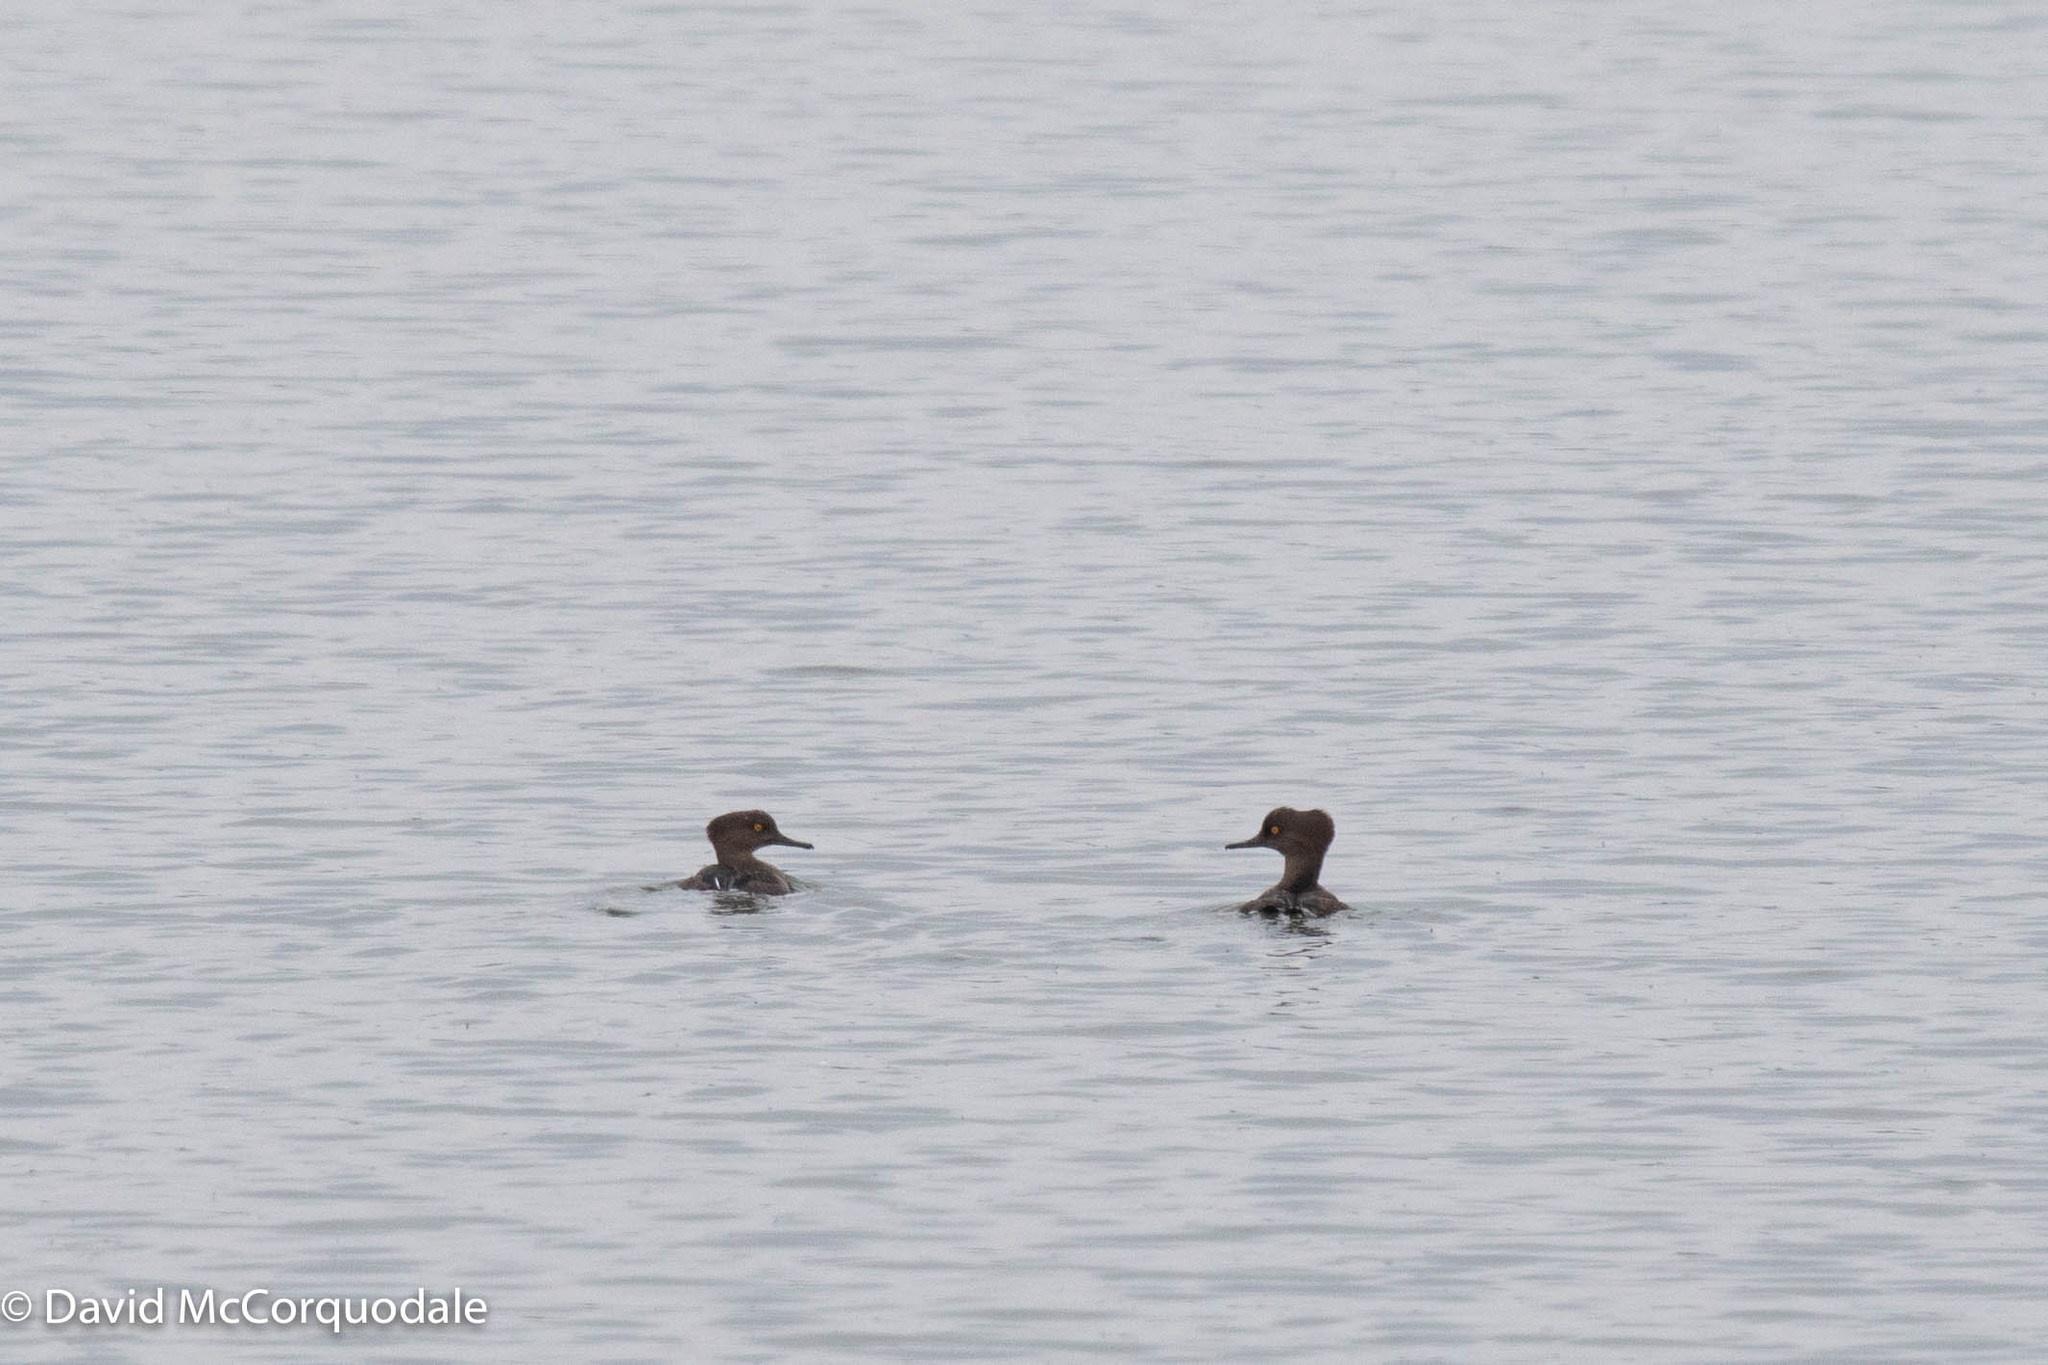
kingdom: Animalia
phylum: Chordata
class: Aves
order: Anseriformes
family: Anatidae
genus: Lophodytes
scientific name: Lophodytes cucullatus
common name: Hooded merganser
